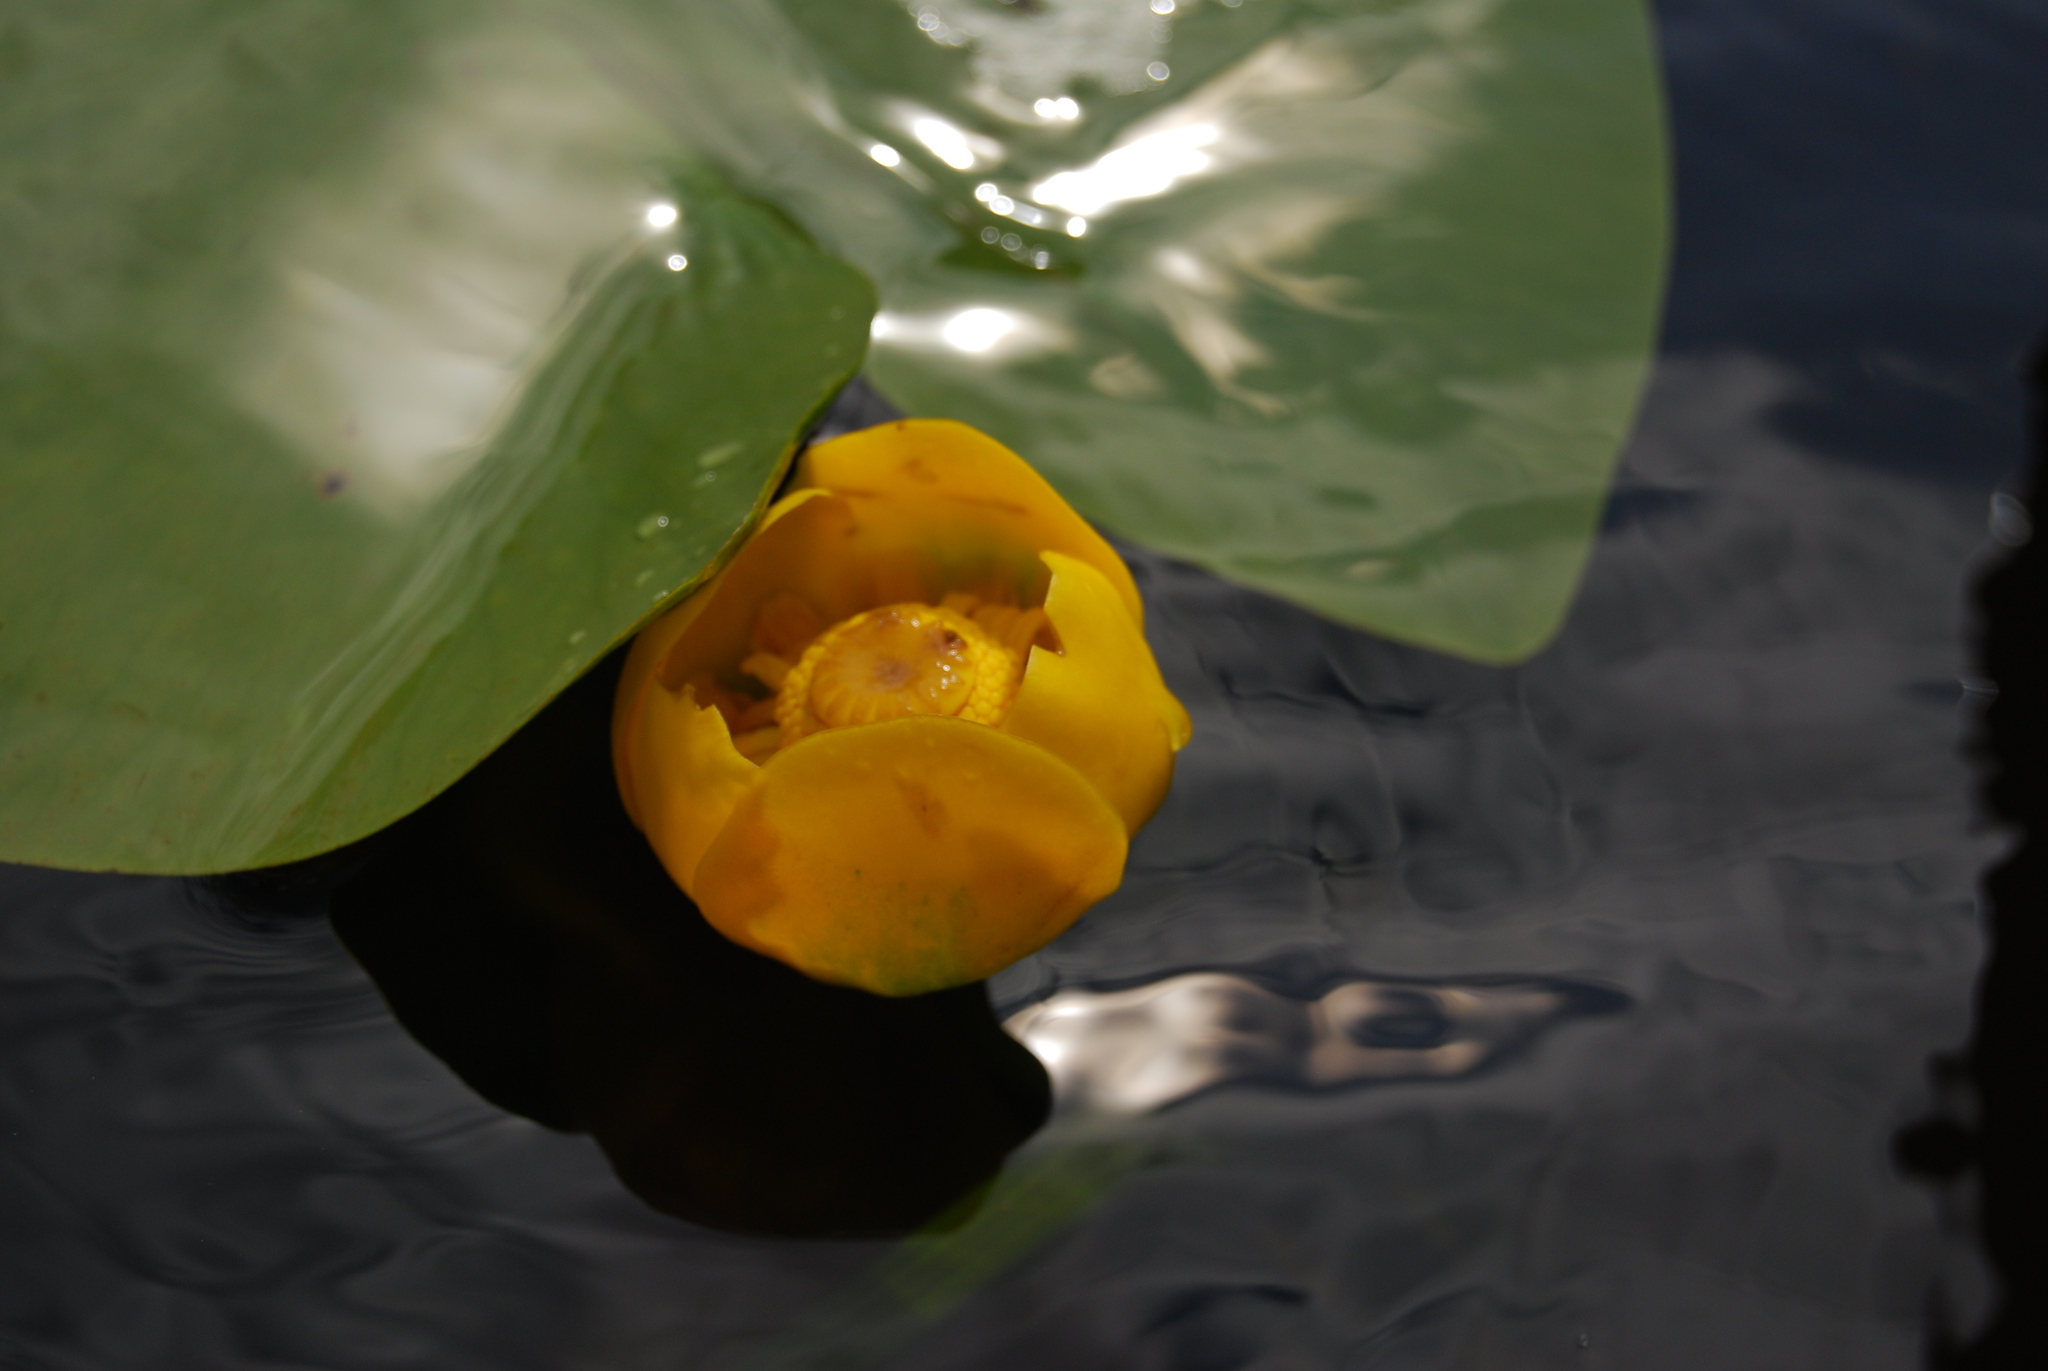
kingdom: Plantae
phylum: Tracheophyta
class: Magnoliopsida
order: Nymphaeales
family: Nymphaeaceae
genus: Nuphar
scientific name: Nuphar lutea
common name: Yellow water-lily
